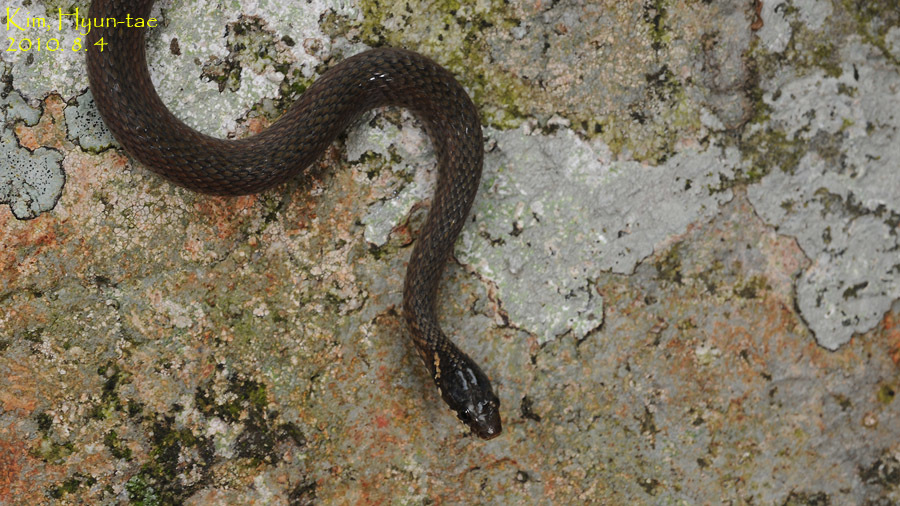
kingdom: Animalia
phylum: Chordata
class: Squamata
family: Colubridae
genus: Hebius
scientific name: Hebius vibakari
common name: Japanese keelback
